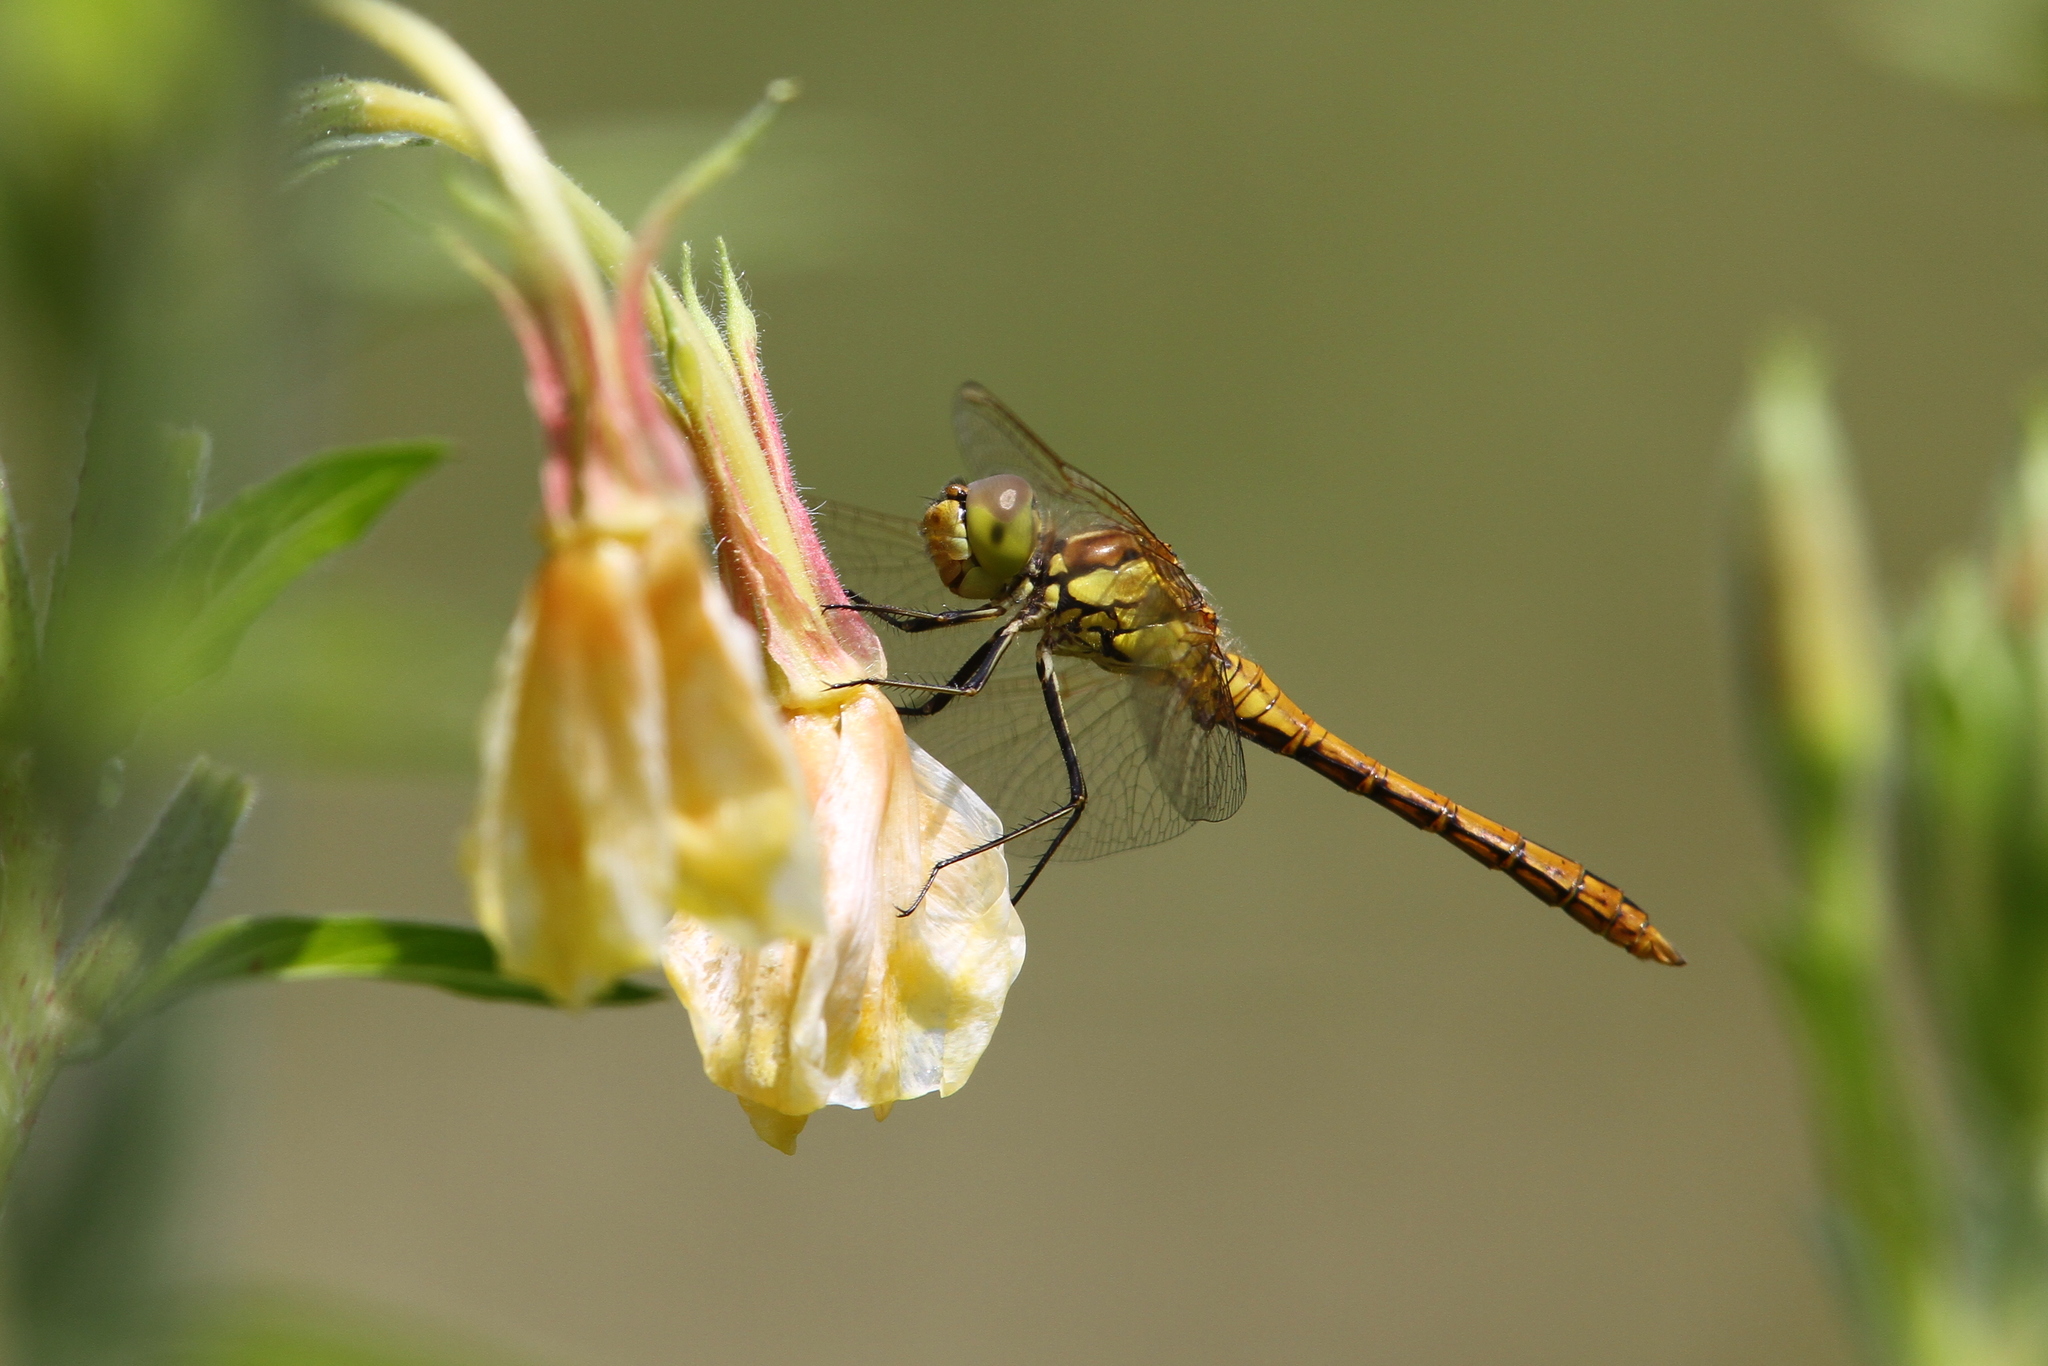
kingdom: Animalia
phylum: Arthropoda
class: Insecta
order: Odonata
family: Libellulidae
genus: Sympetrum
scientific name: Sympetrum vulgatum
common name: Vagrant darter
